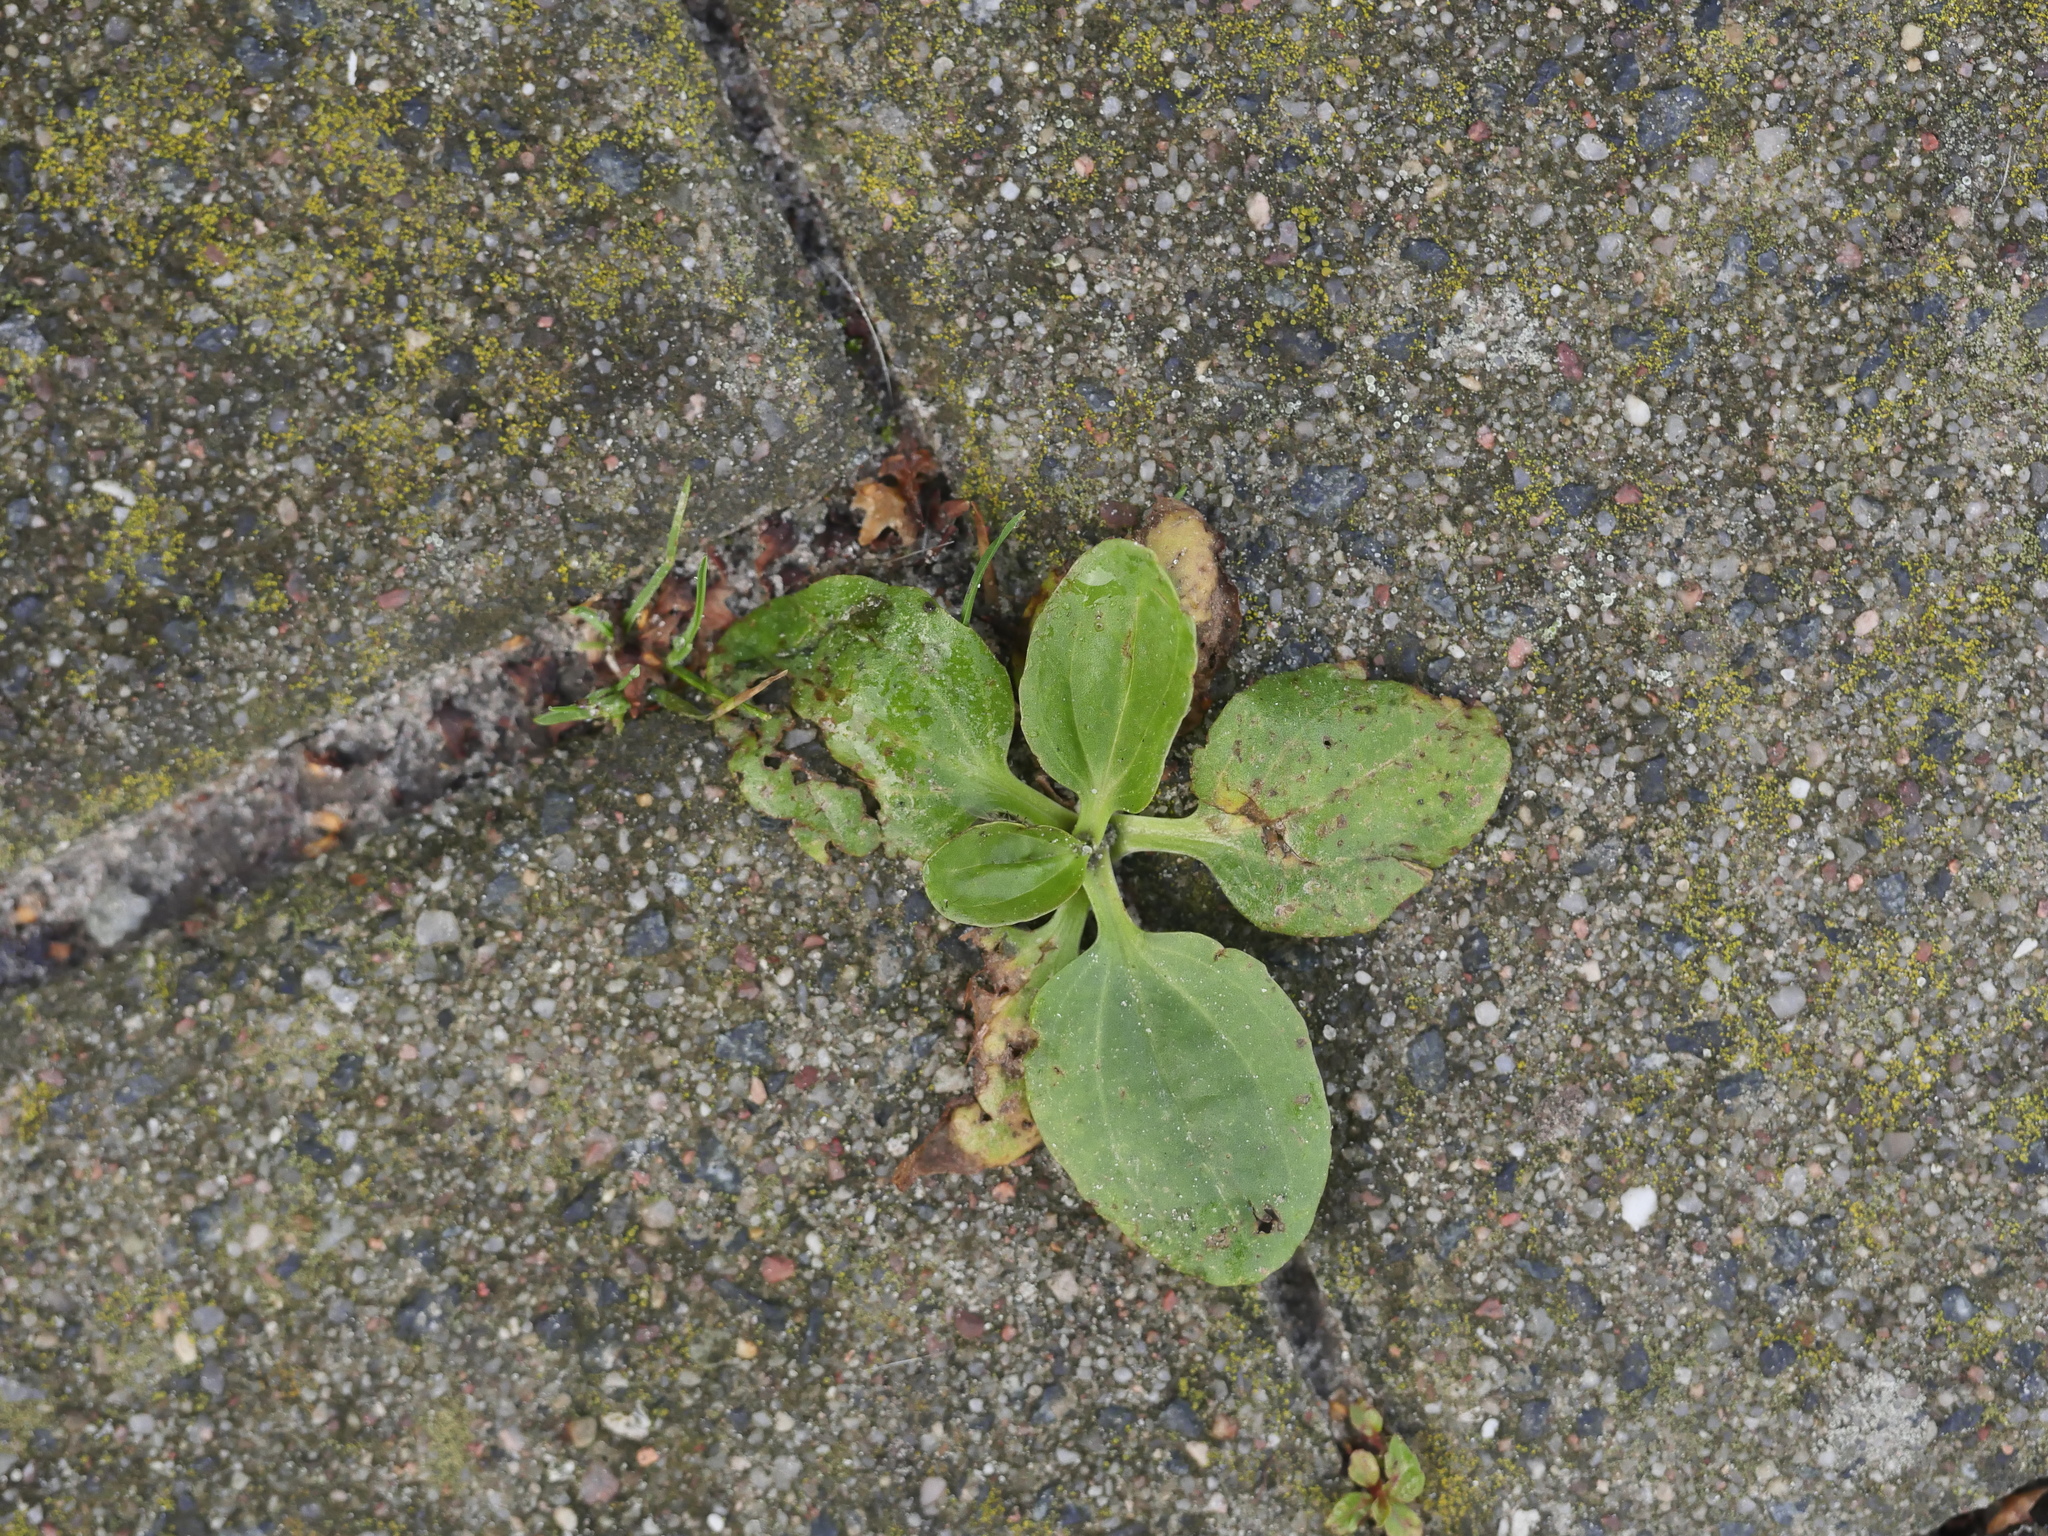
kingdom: Plantae
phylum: Tracheophyta
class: Magnoliopsida
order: Lamiales
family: Plantaginaceae
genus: Plantago
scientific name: Plantago major
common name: Common plantain
